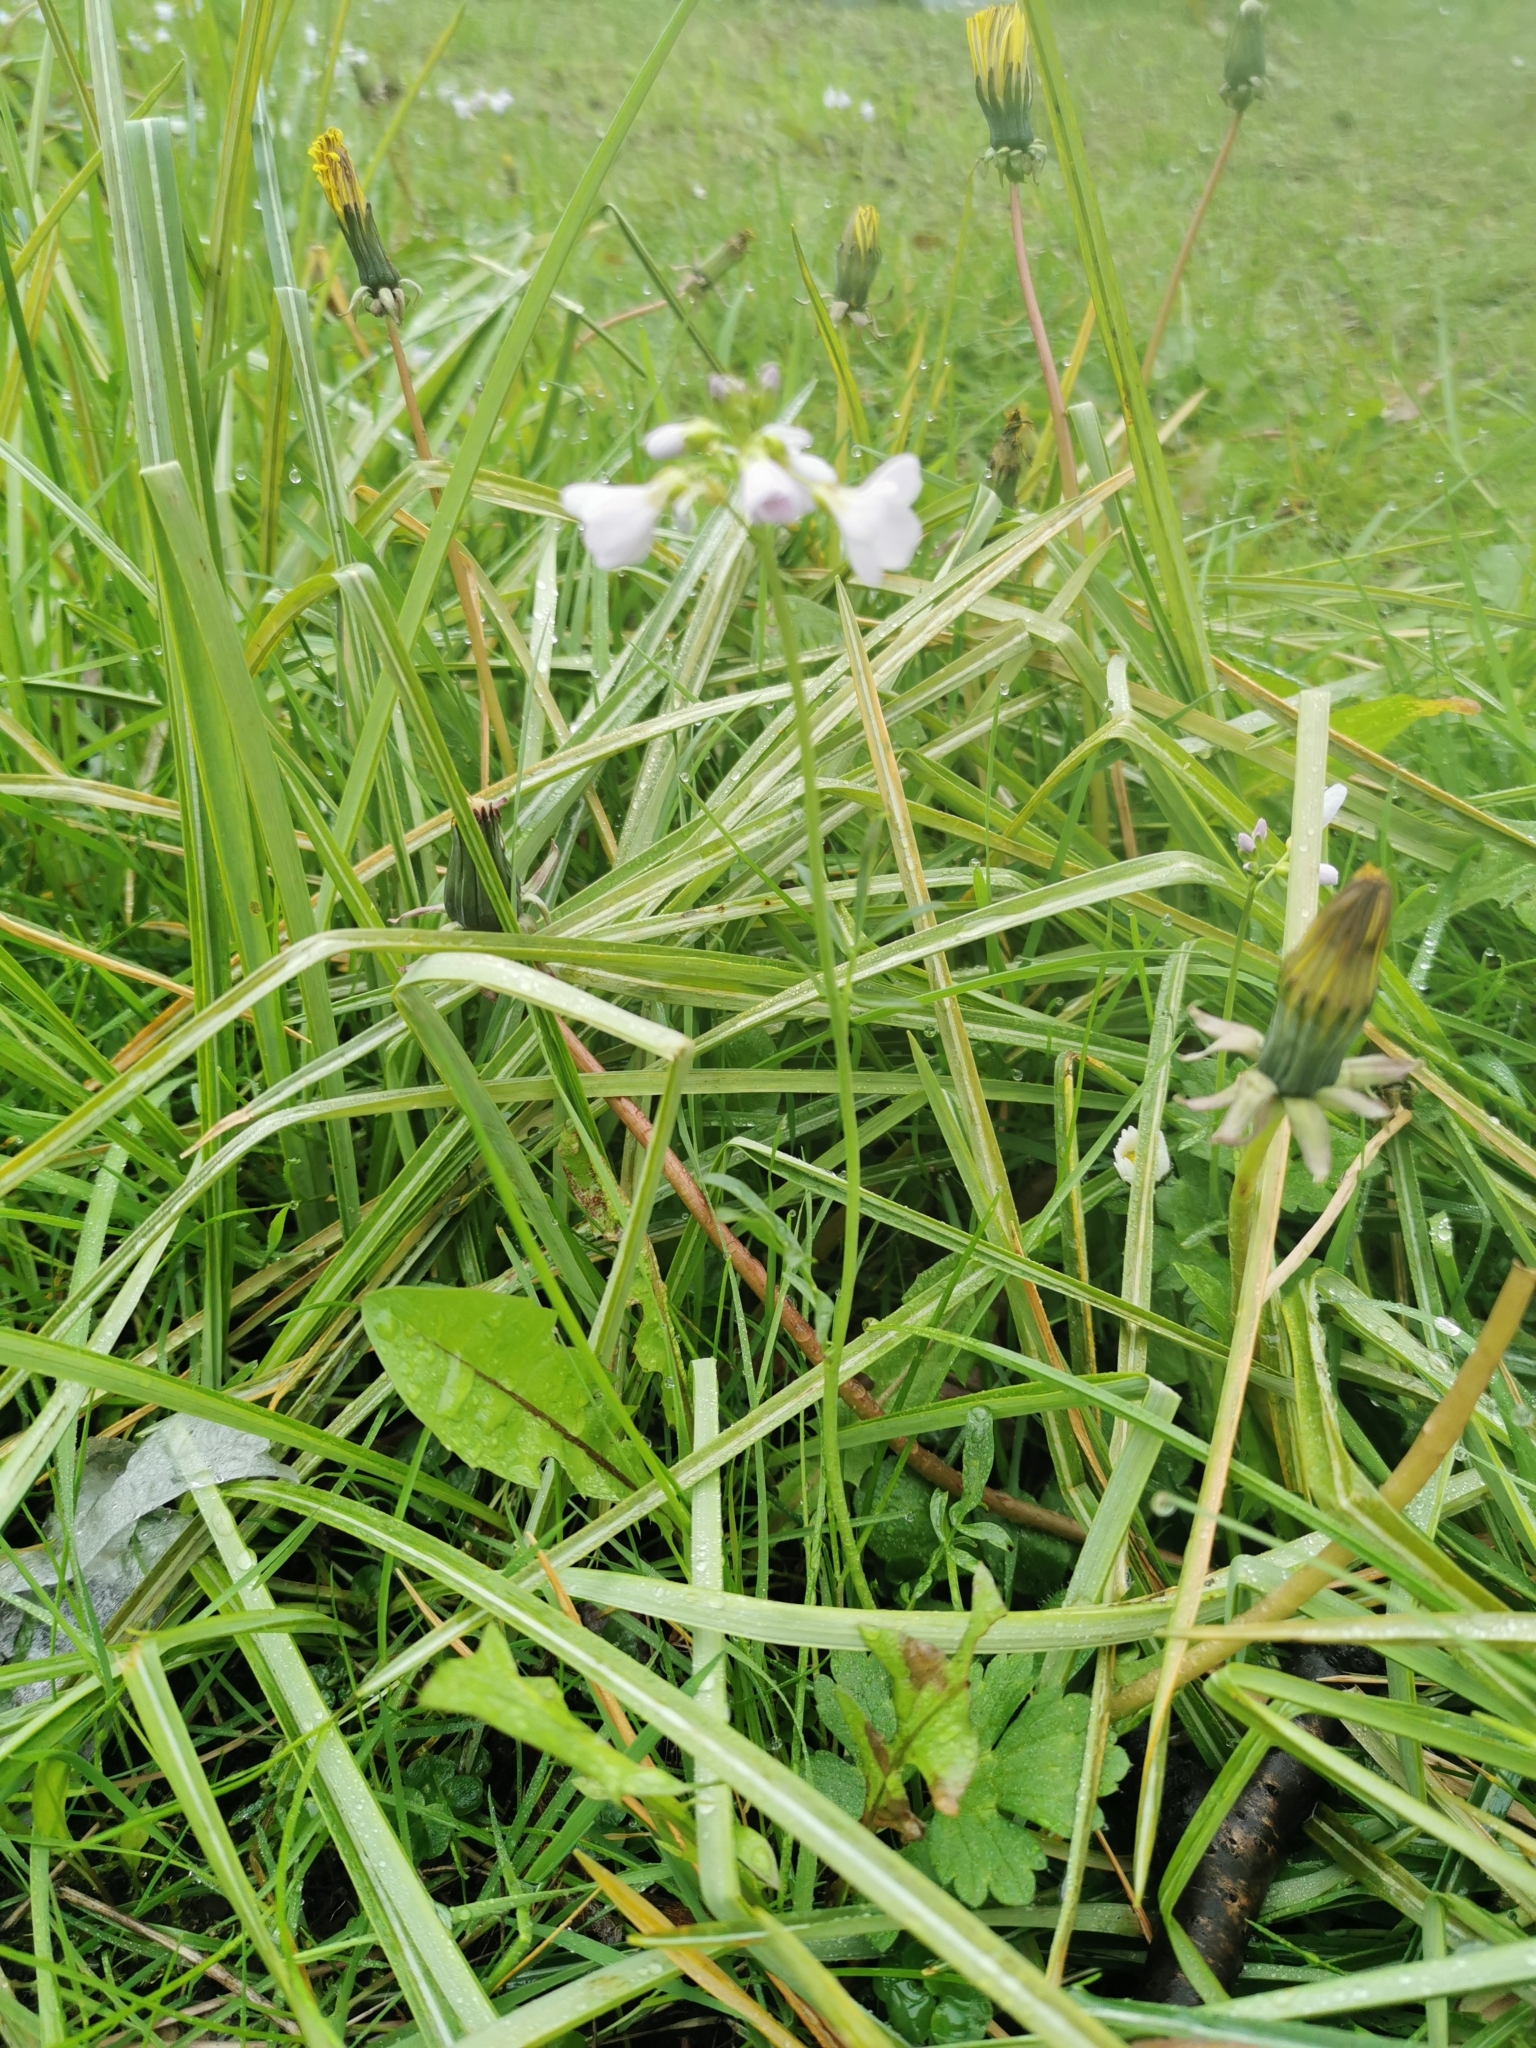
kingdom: Plantae
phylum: Tracheophyta
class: Magnoliopsida
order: Brassicales
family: Brassicaceae
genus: Cardamine
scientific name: Cardamine pratensis
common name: Cuckoo flower
